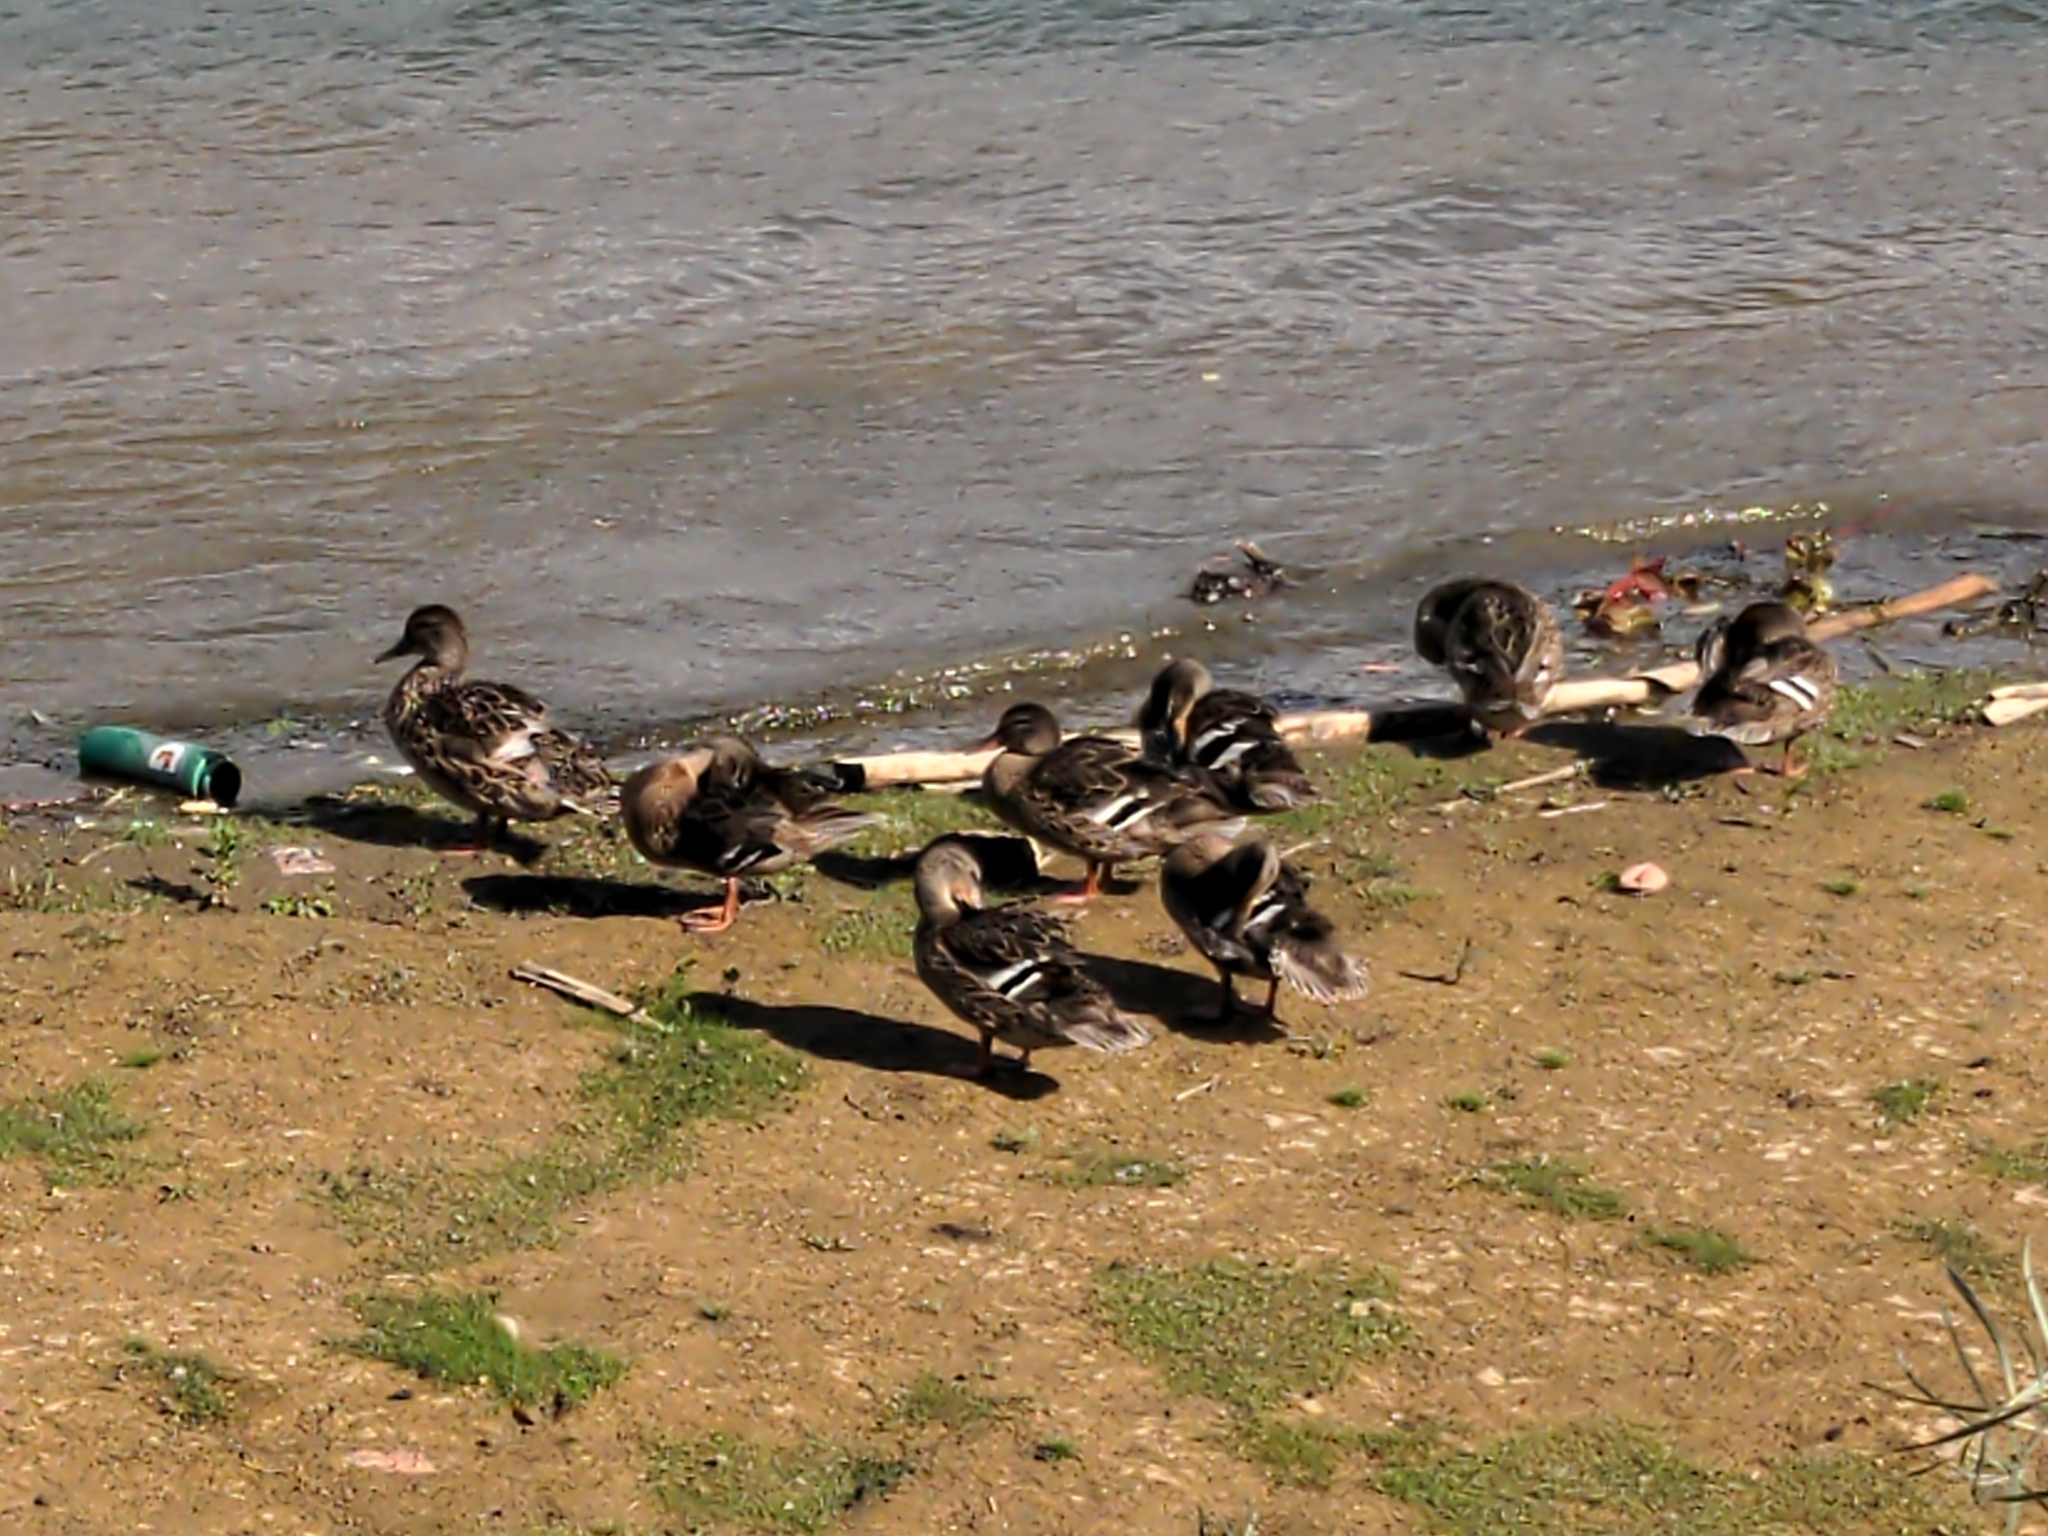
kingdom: Animalia
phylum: Chordata
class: Aves
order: Anseriformes
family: Anatidae
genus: Anas
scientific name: Anas platyrhynchos
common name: Mallard
